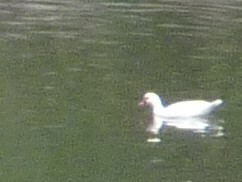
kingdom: Animalia
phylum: Chordata
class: Aves
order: Anseriformes
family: Anatidae
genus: Cairina
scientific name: Cairina moschata
